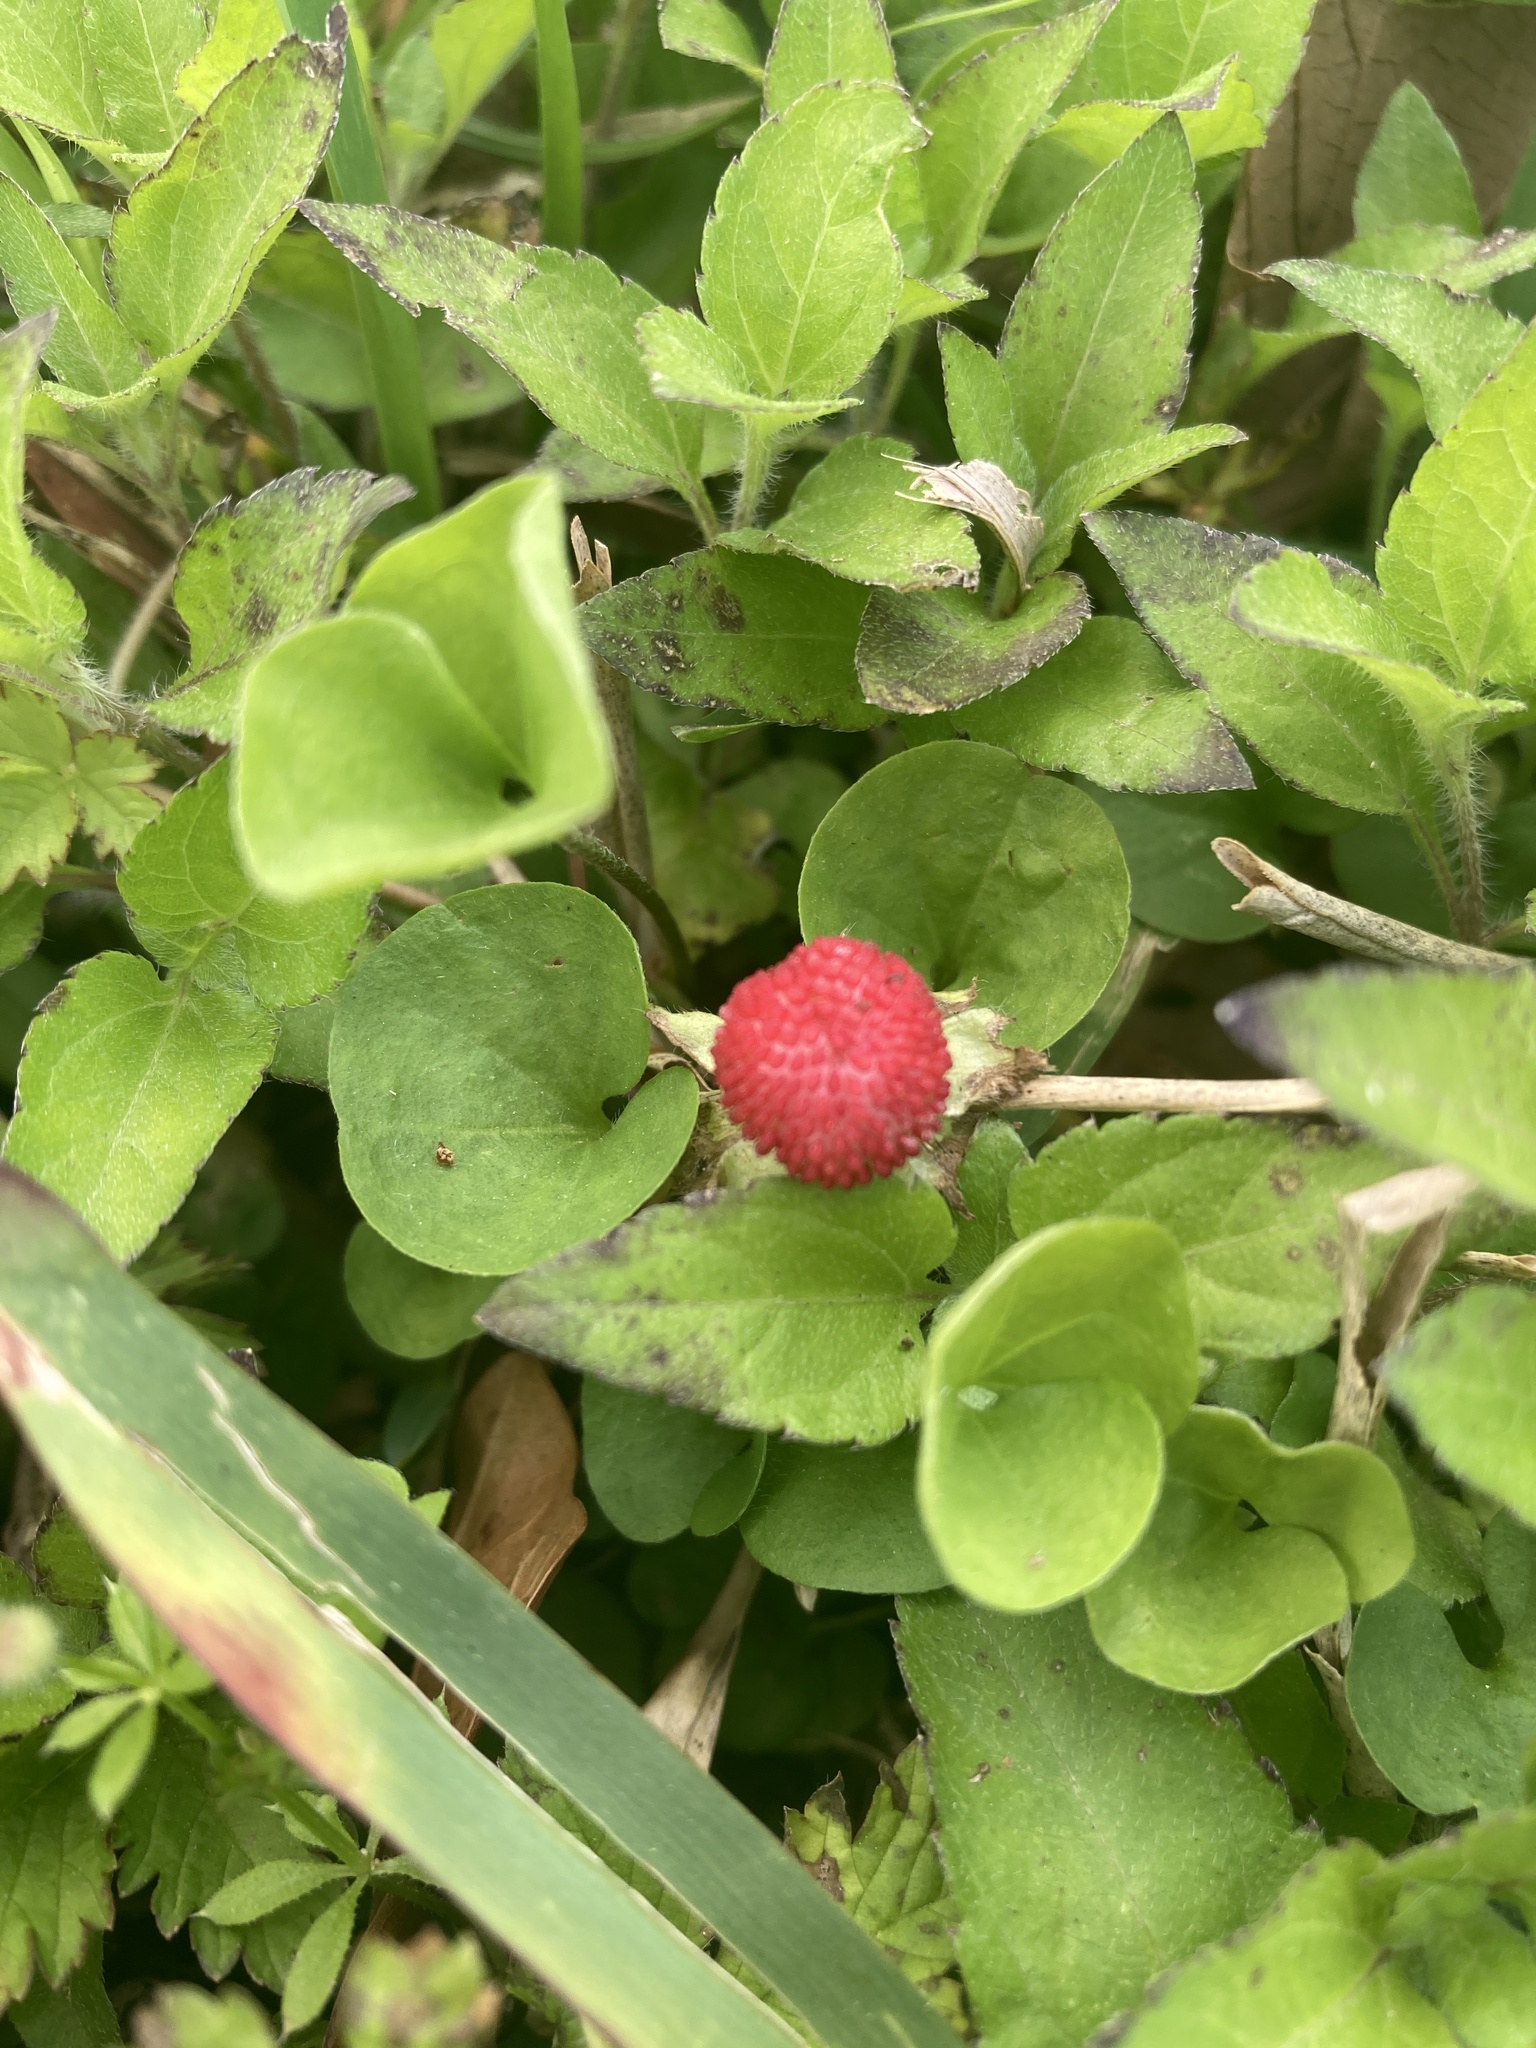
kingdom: Plantae
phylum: Tracheophyta
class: Magnoliopsida
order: Rosales
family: Rosaceae
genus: Potentilla
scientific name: Potentilla indica
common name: Yellow-flowered strawberry
